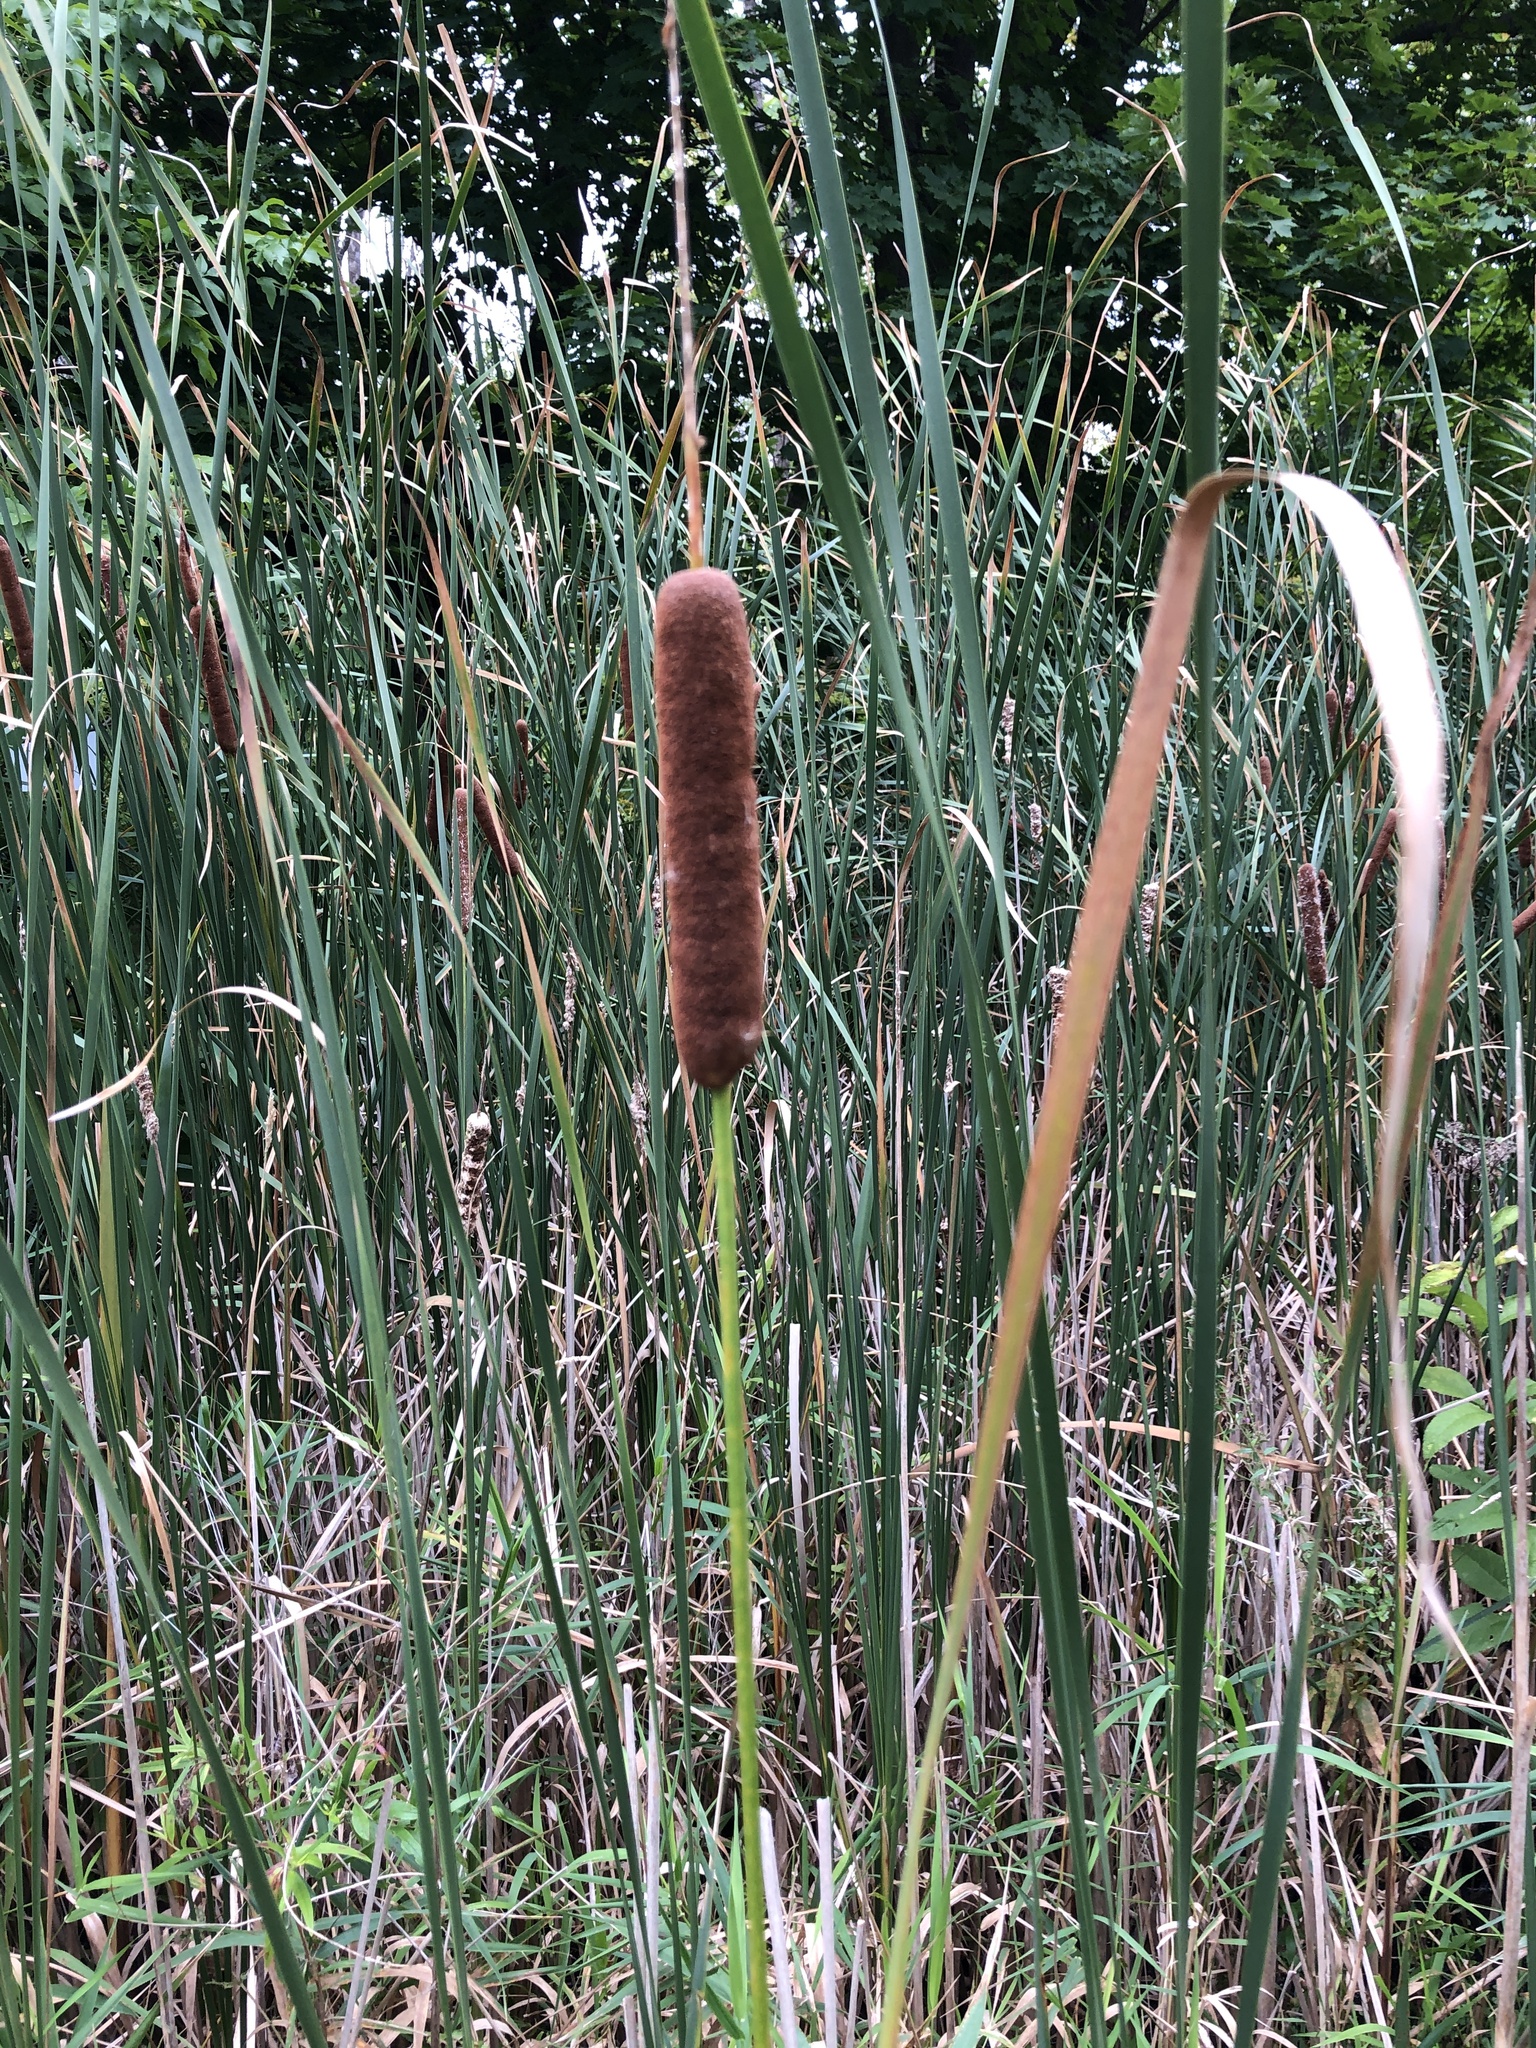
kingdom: Plantae
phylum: Tracheophyta
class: Liliopsida
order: Poales
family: Typhaceae
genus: Typha
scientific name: Typha
